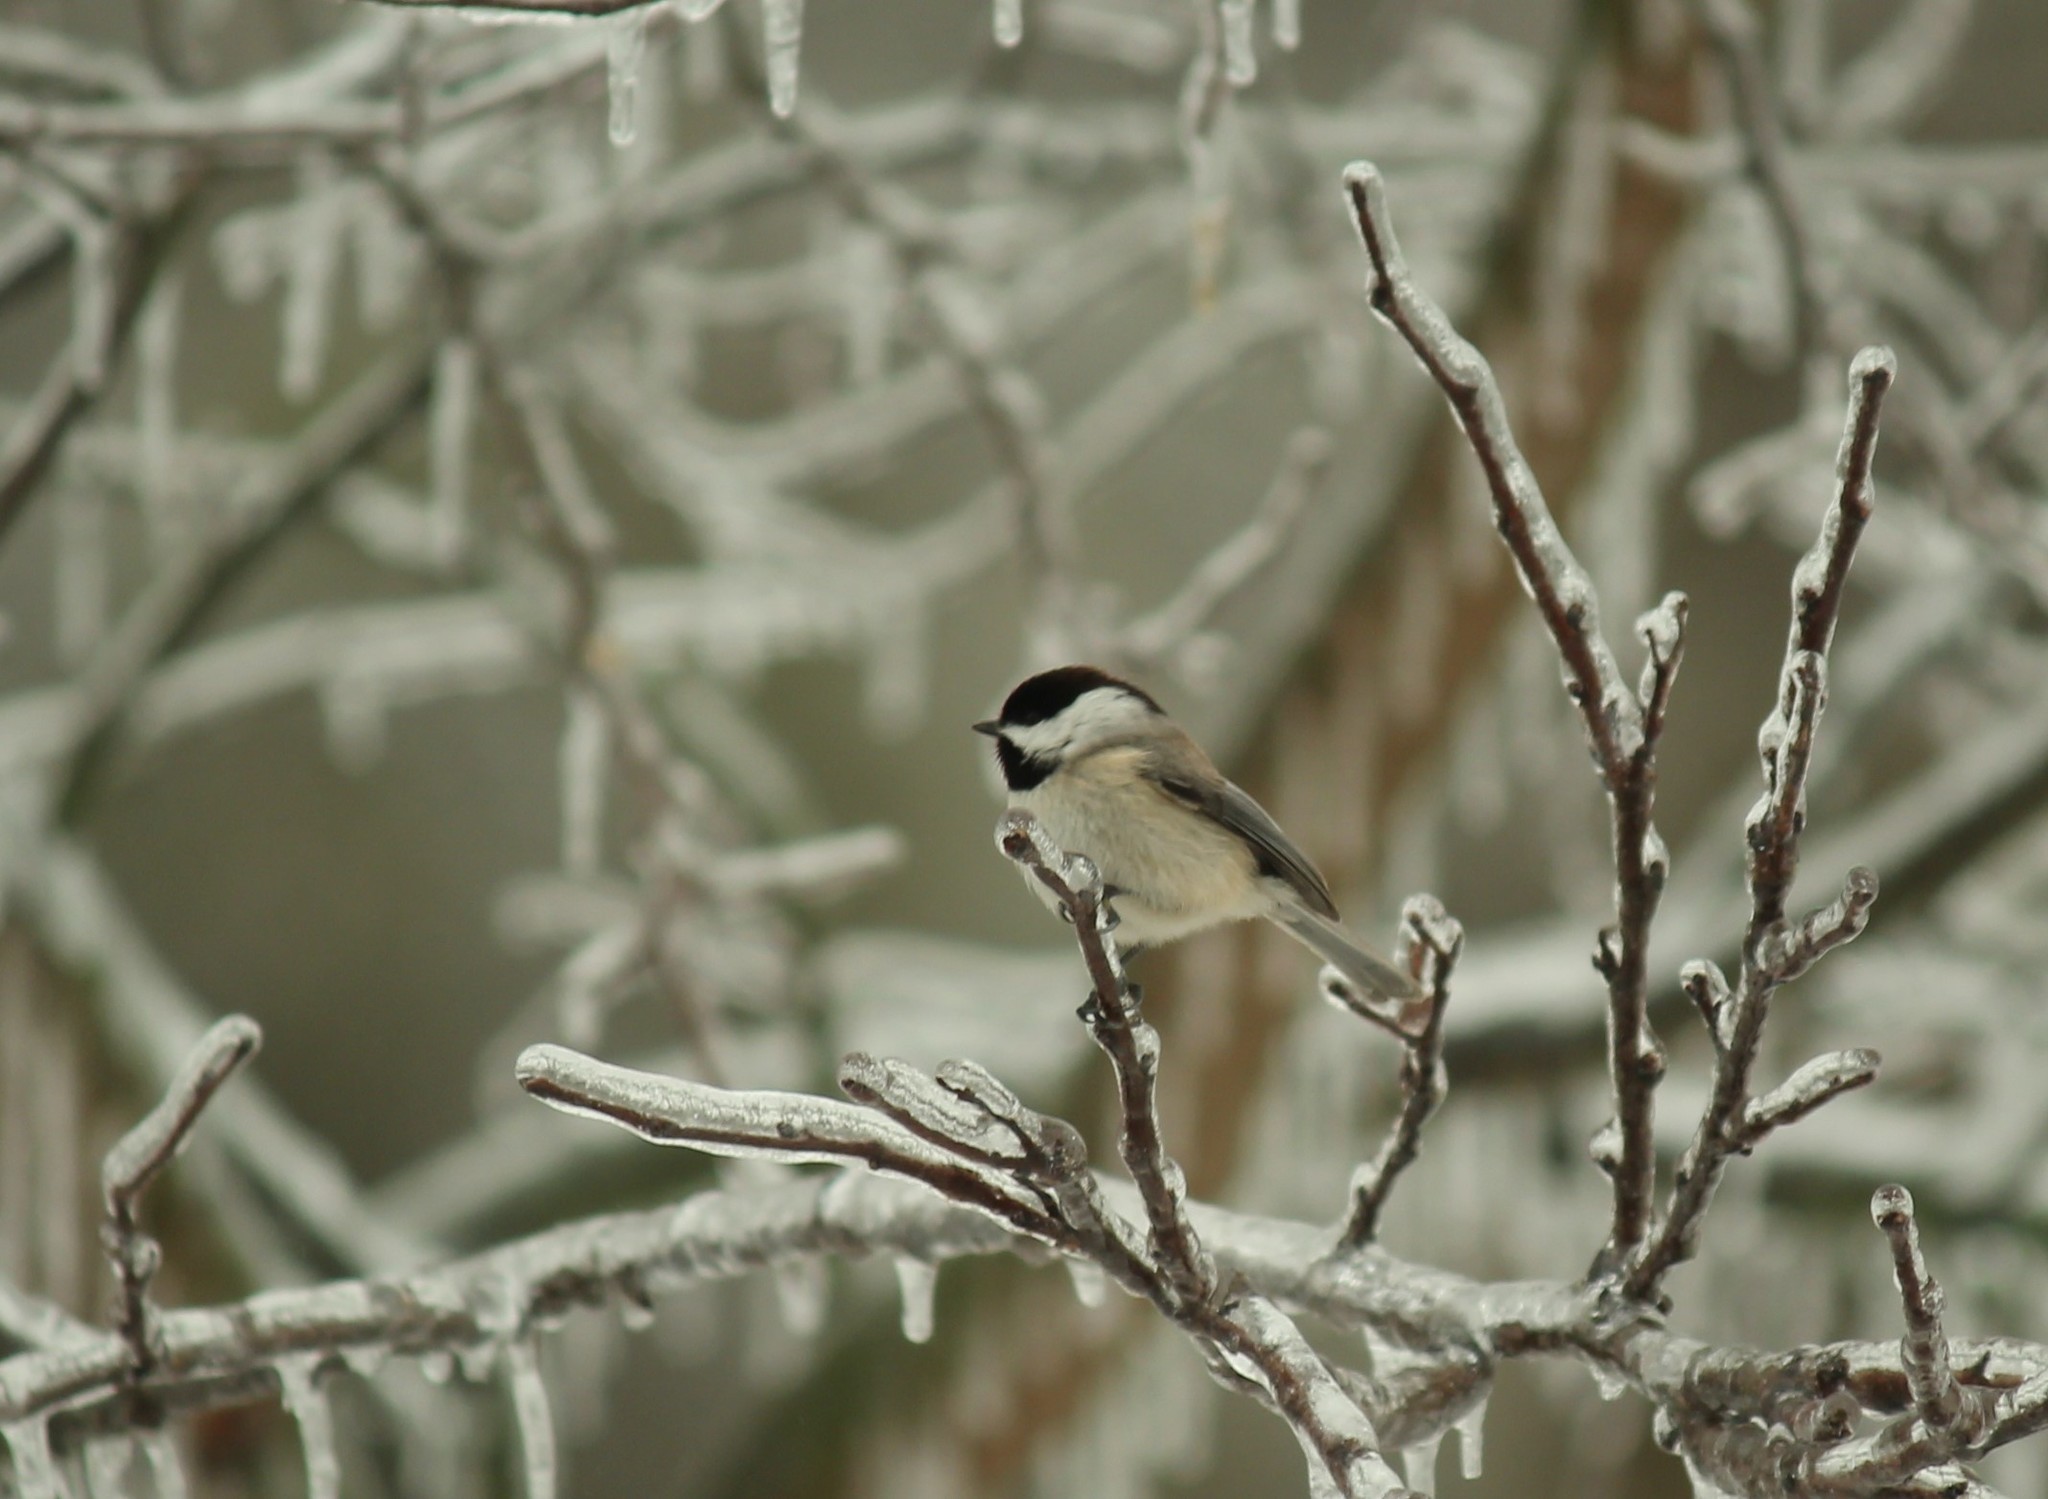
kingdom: Animalia
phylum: Chordata
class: Aves
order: Passeriformes
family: Paridae
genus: Poecile
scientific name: Poecile carolinensis
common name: Carolina chickadee
